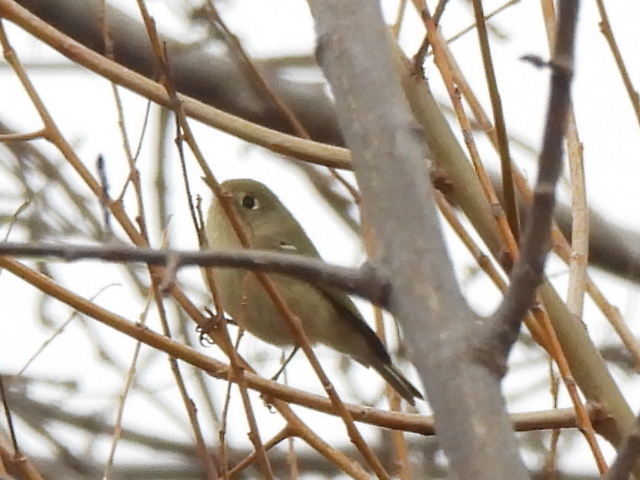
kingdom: Animalia
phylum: Chordata
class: Aves
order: Passeriformes
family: Regulidae
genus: Regulus
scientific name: Regulus calendula
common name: Ruby-crowned kinglet
